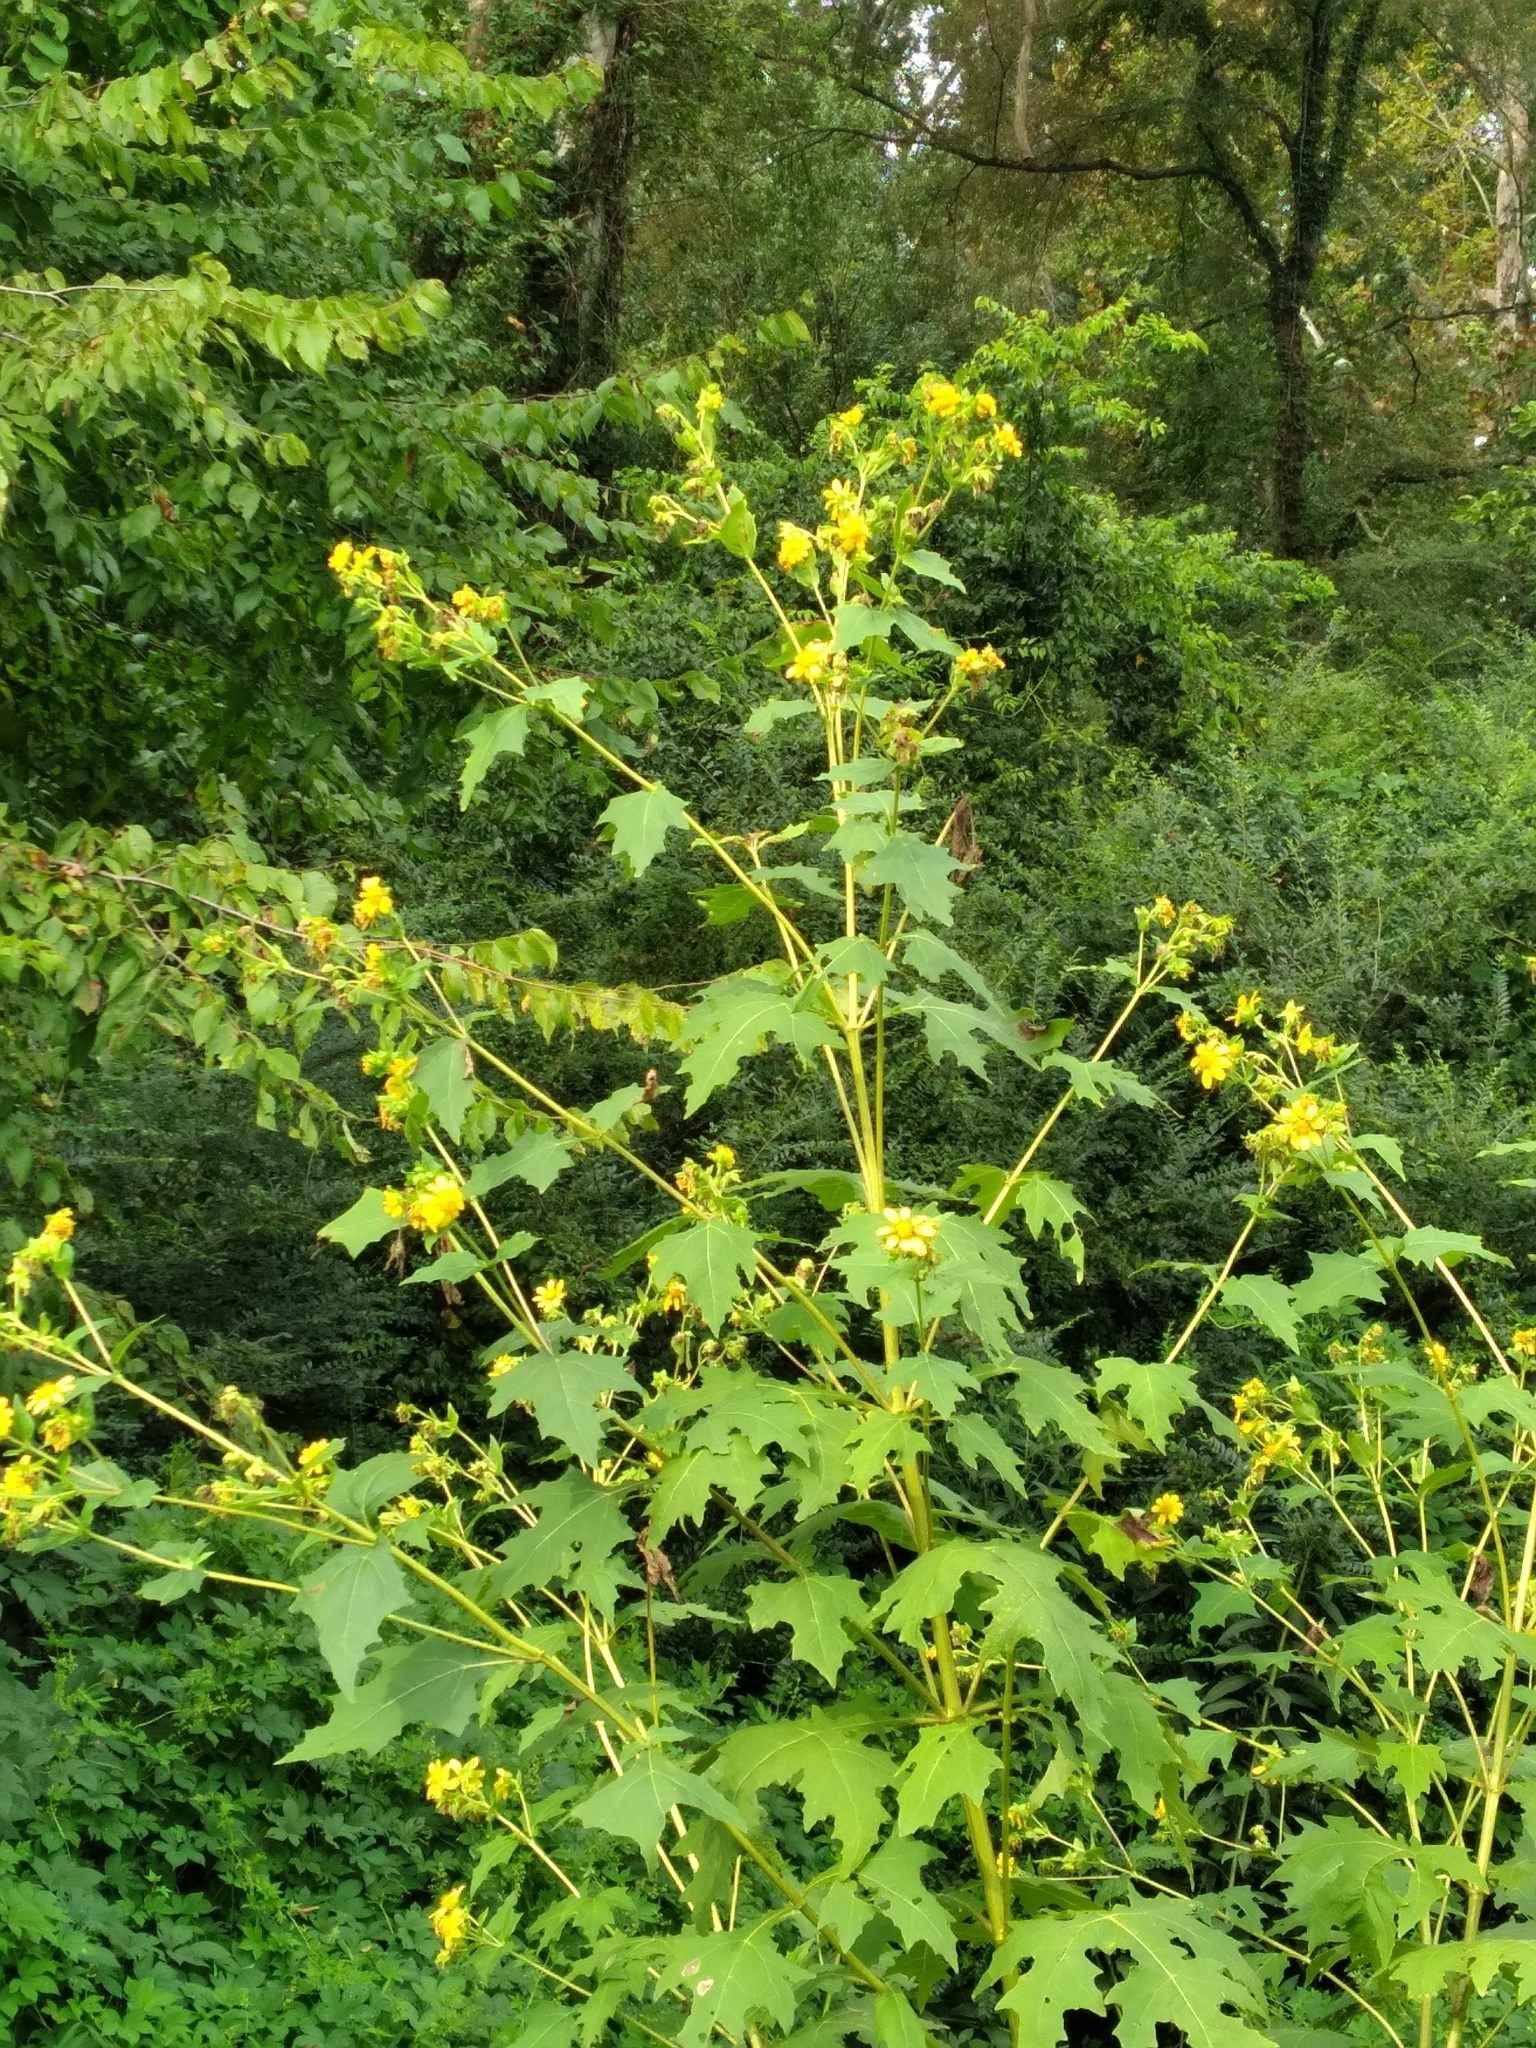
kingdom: Plantae
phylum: Tracheophyta
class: Magnoliopsida
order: Asterales
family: Asteraceae
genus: Smallanthus
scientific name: Smallanthus uvedalia
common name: Bear's-foot
